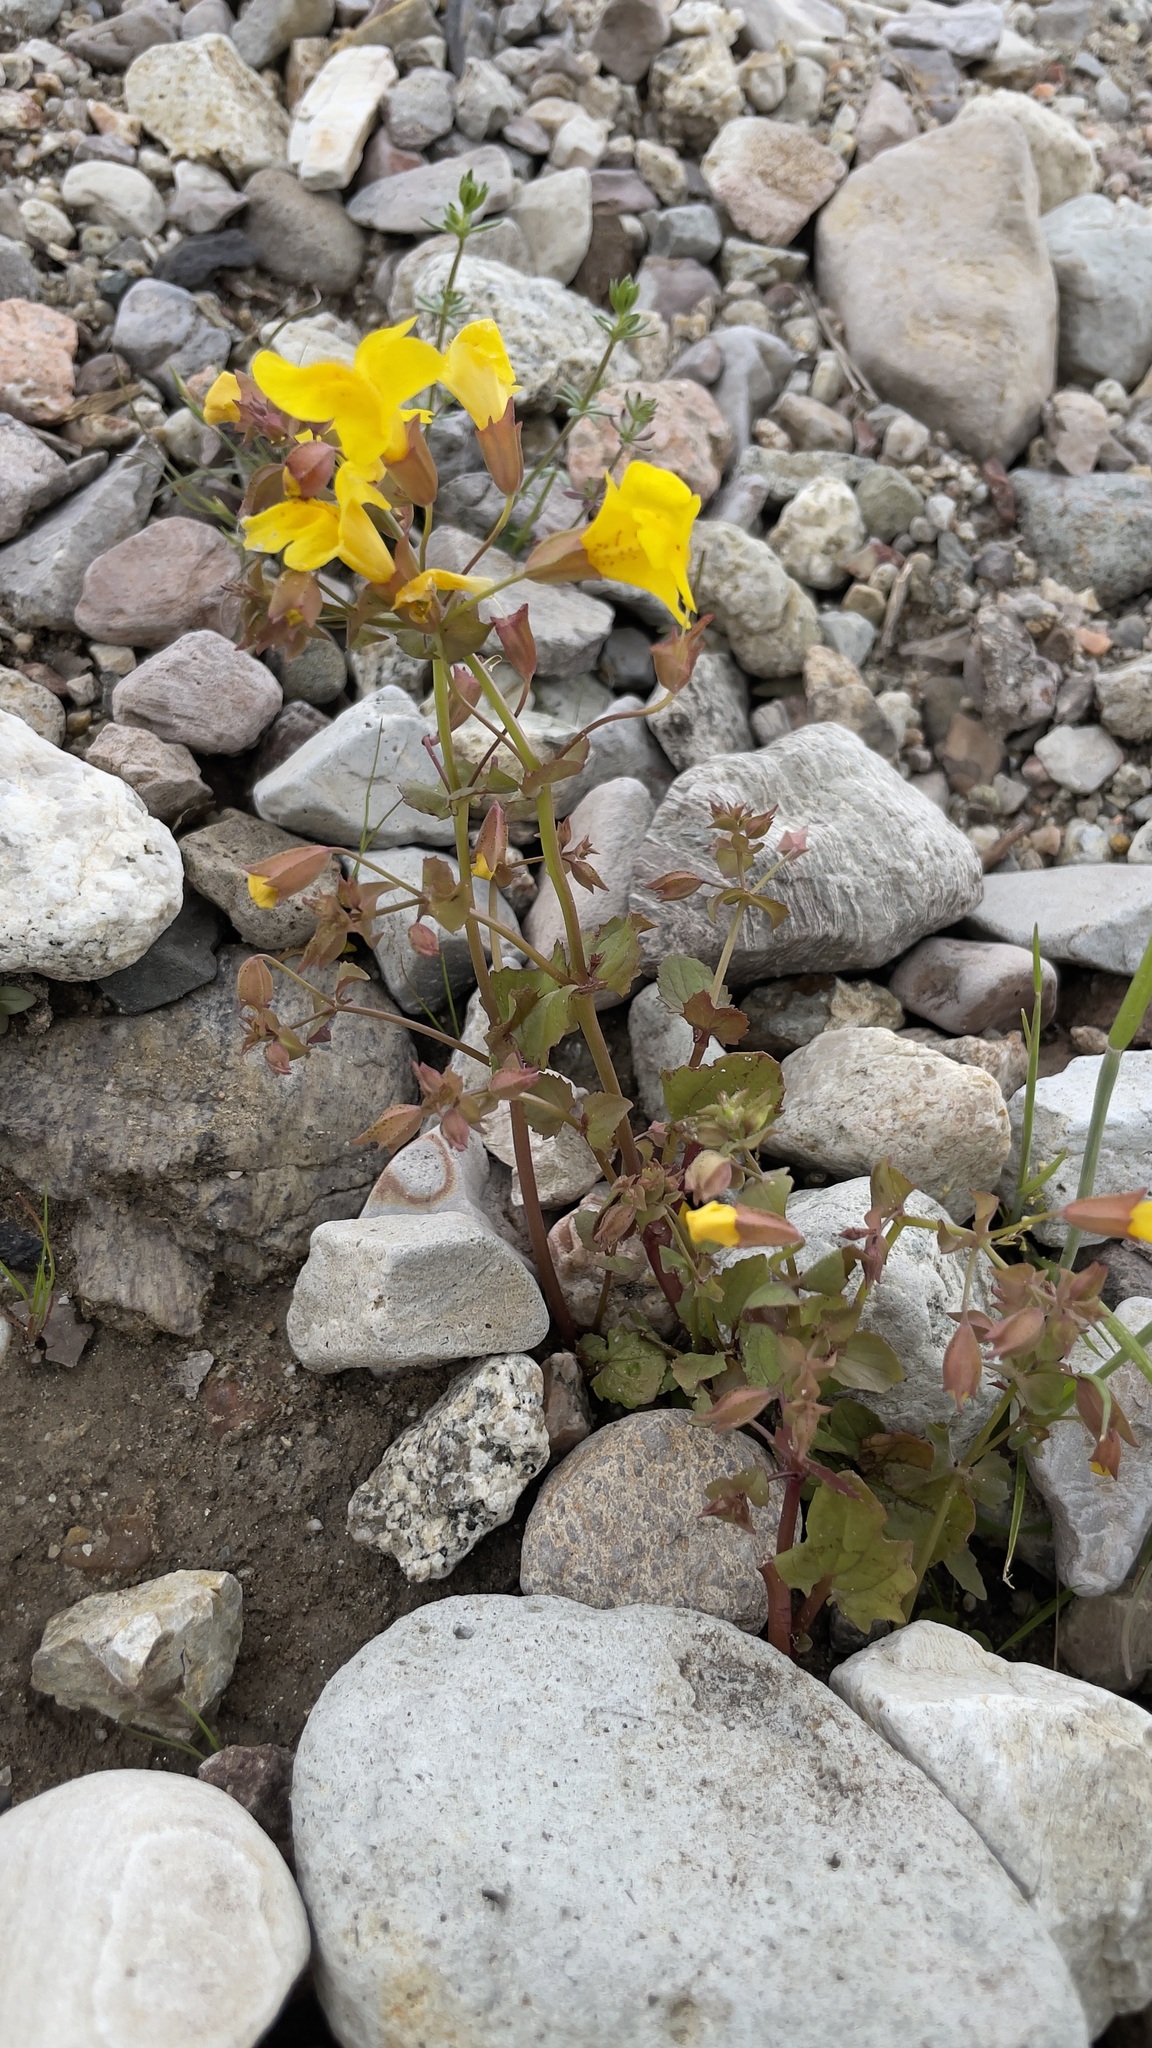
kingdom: Plantae
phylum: Tracheophyta
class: Magnoliopsida
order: Lamiales
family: Phrymaceae
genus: Erythranthe
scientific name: Erythranthe guttata
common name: Monkeyflower
